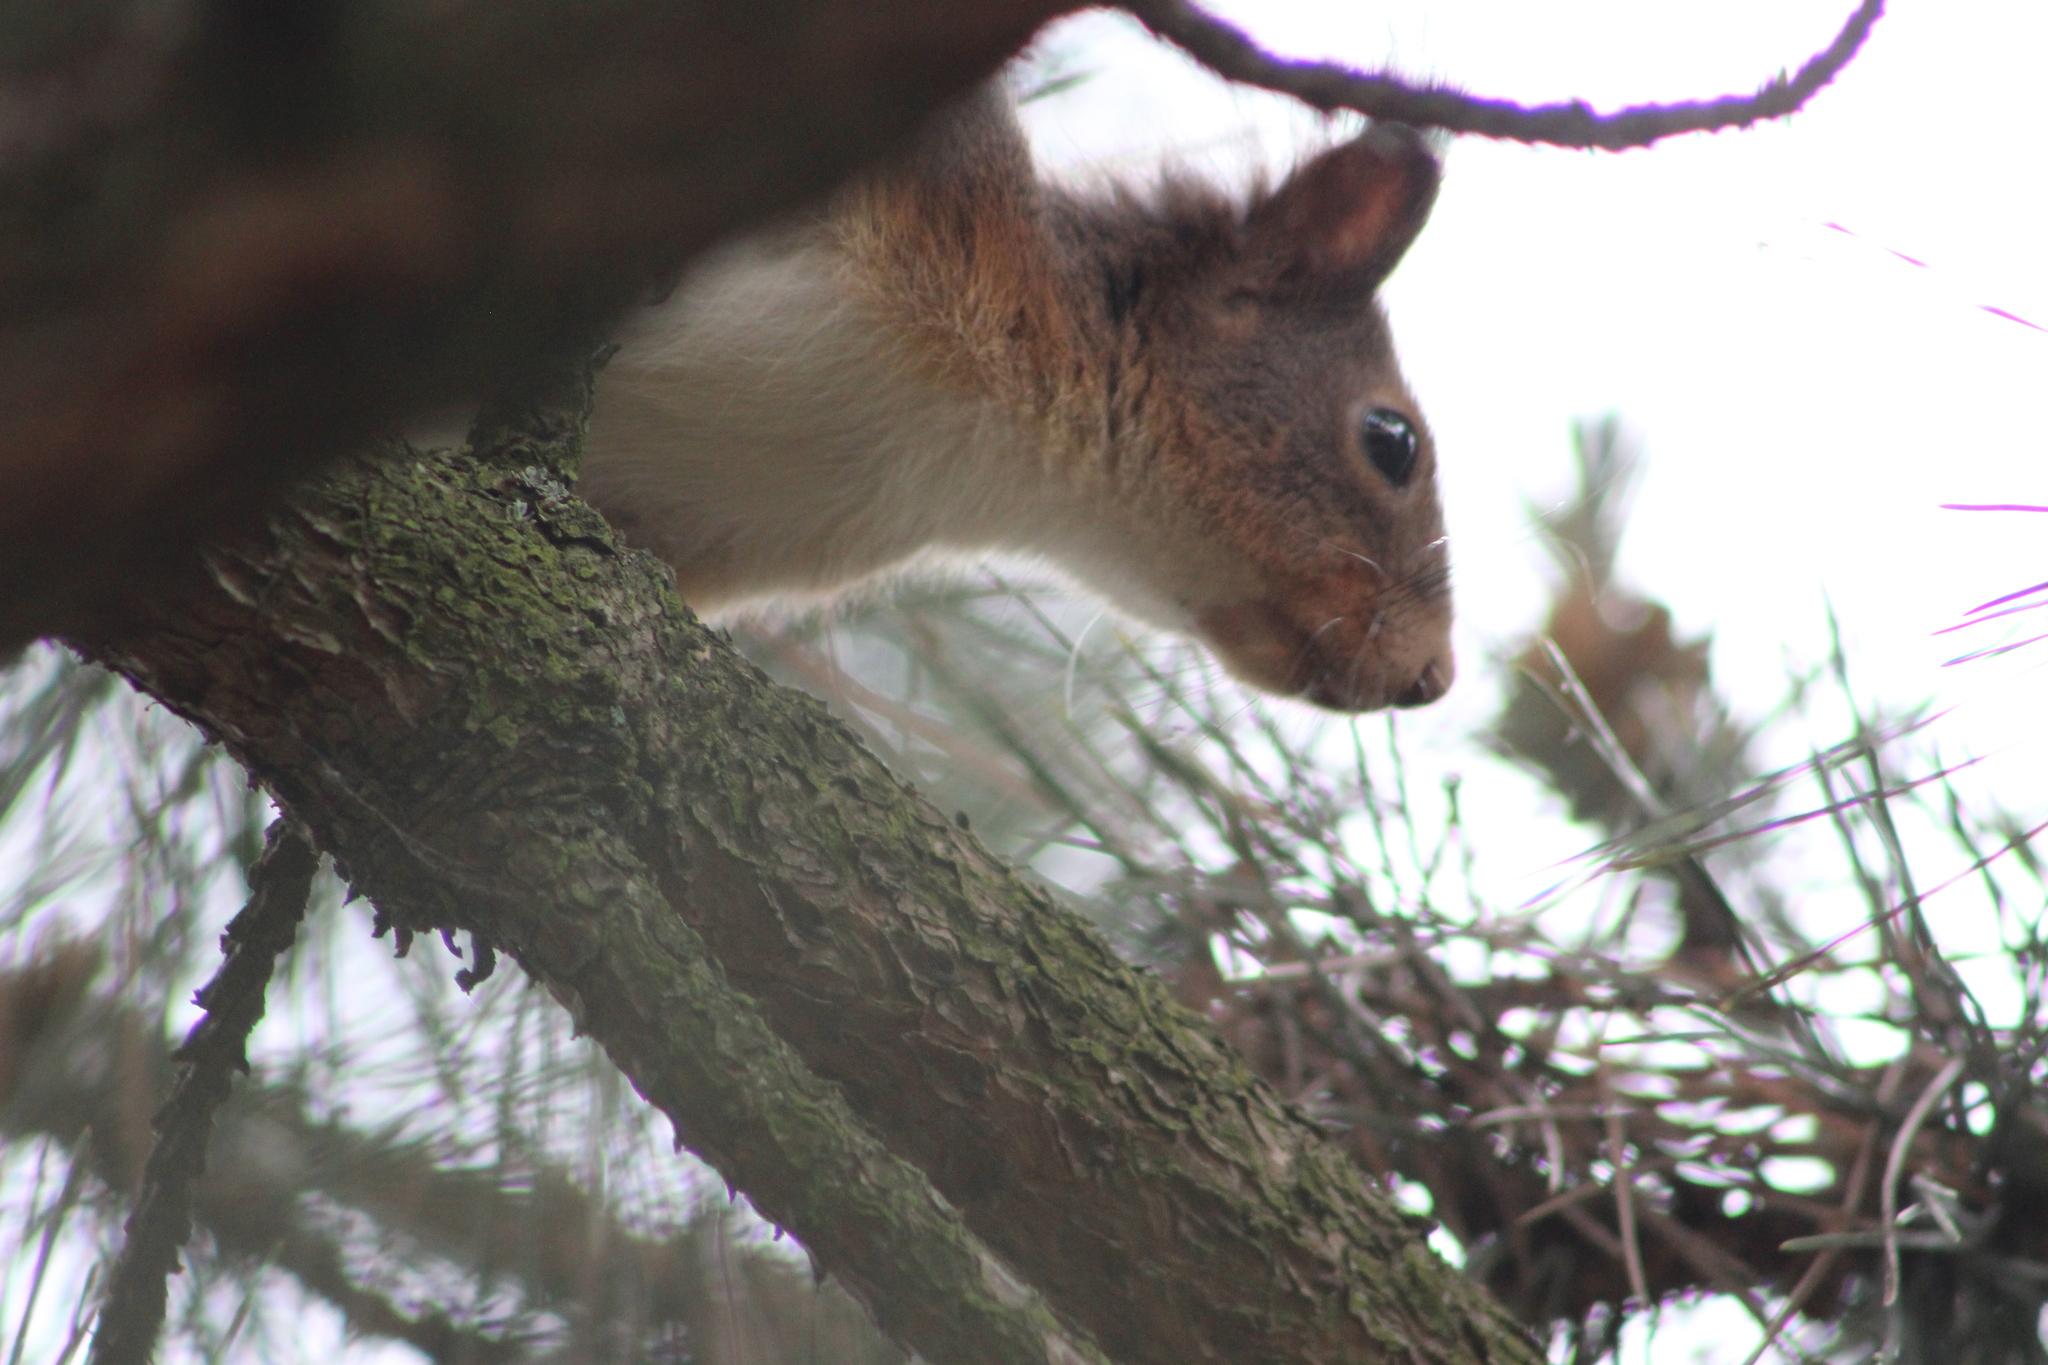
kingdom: Animalia
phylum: Chordata
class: Mammalia
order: Rodentia
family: Sciuridae
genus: Sciurus
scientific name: Sciurus vulgaris
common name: Eurasian red squirrel
